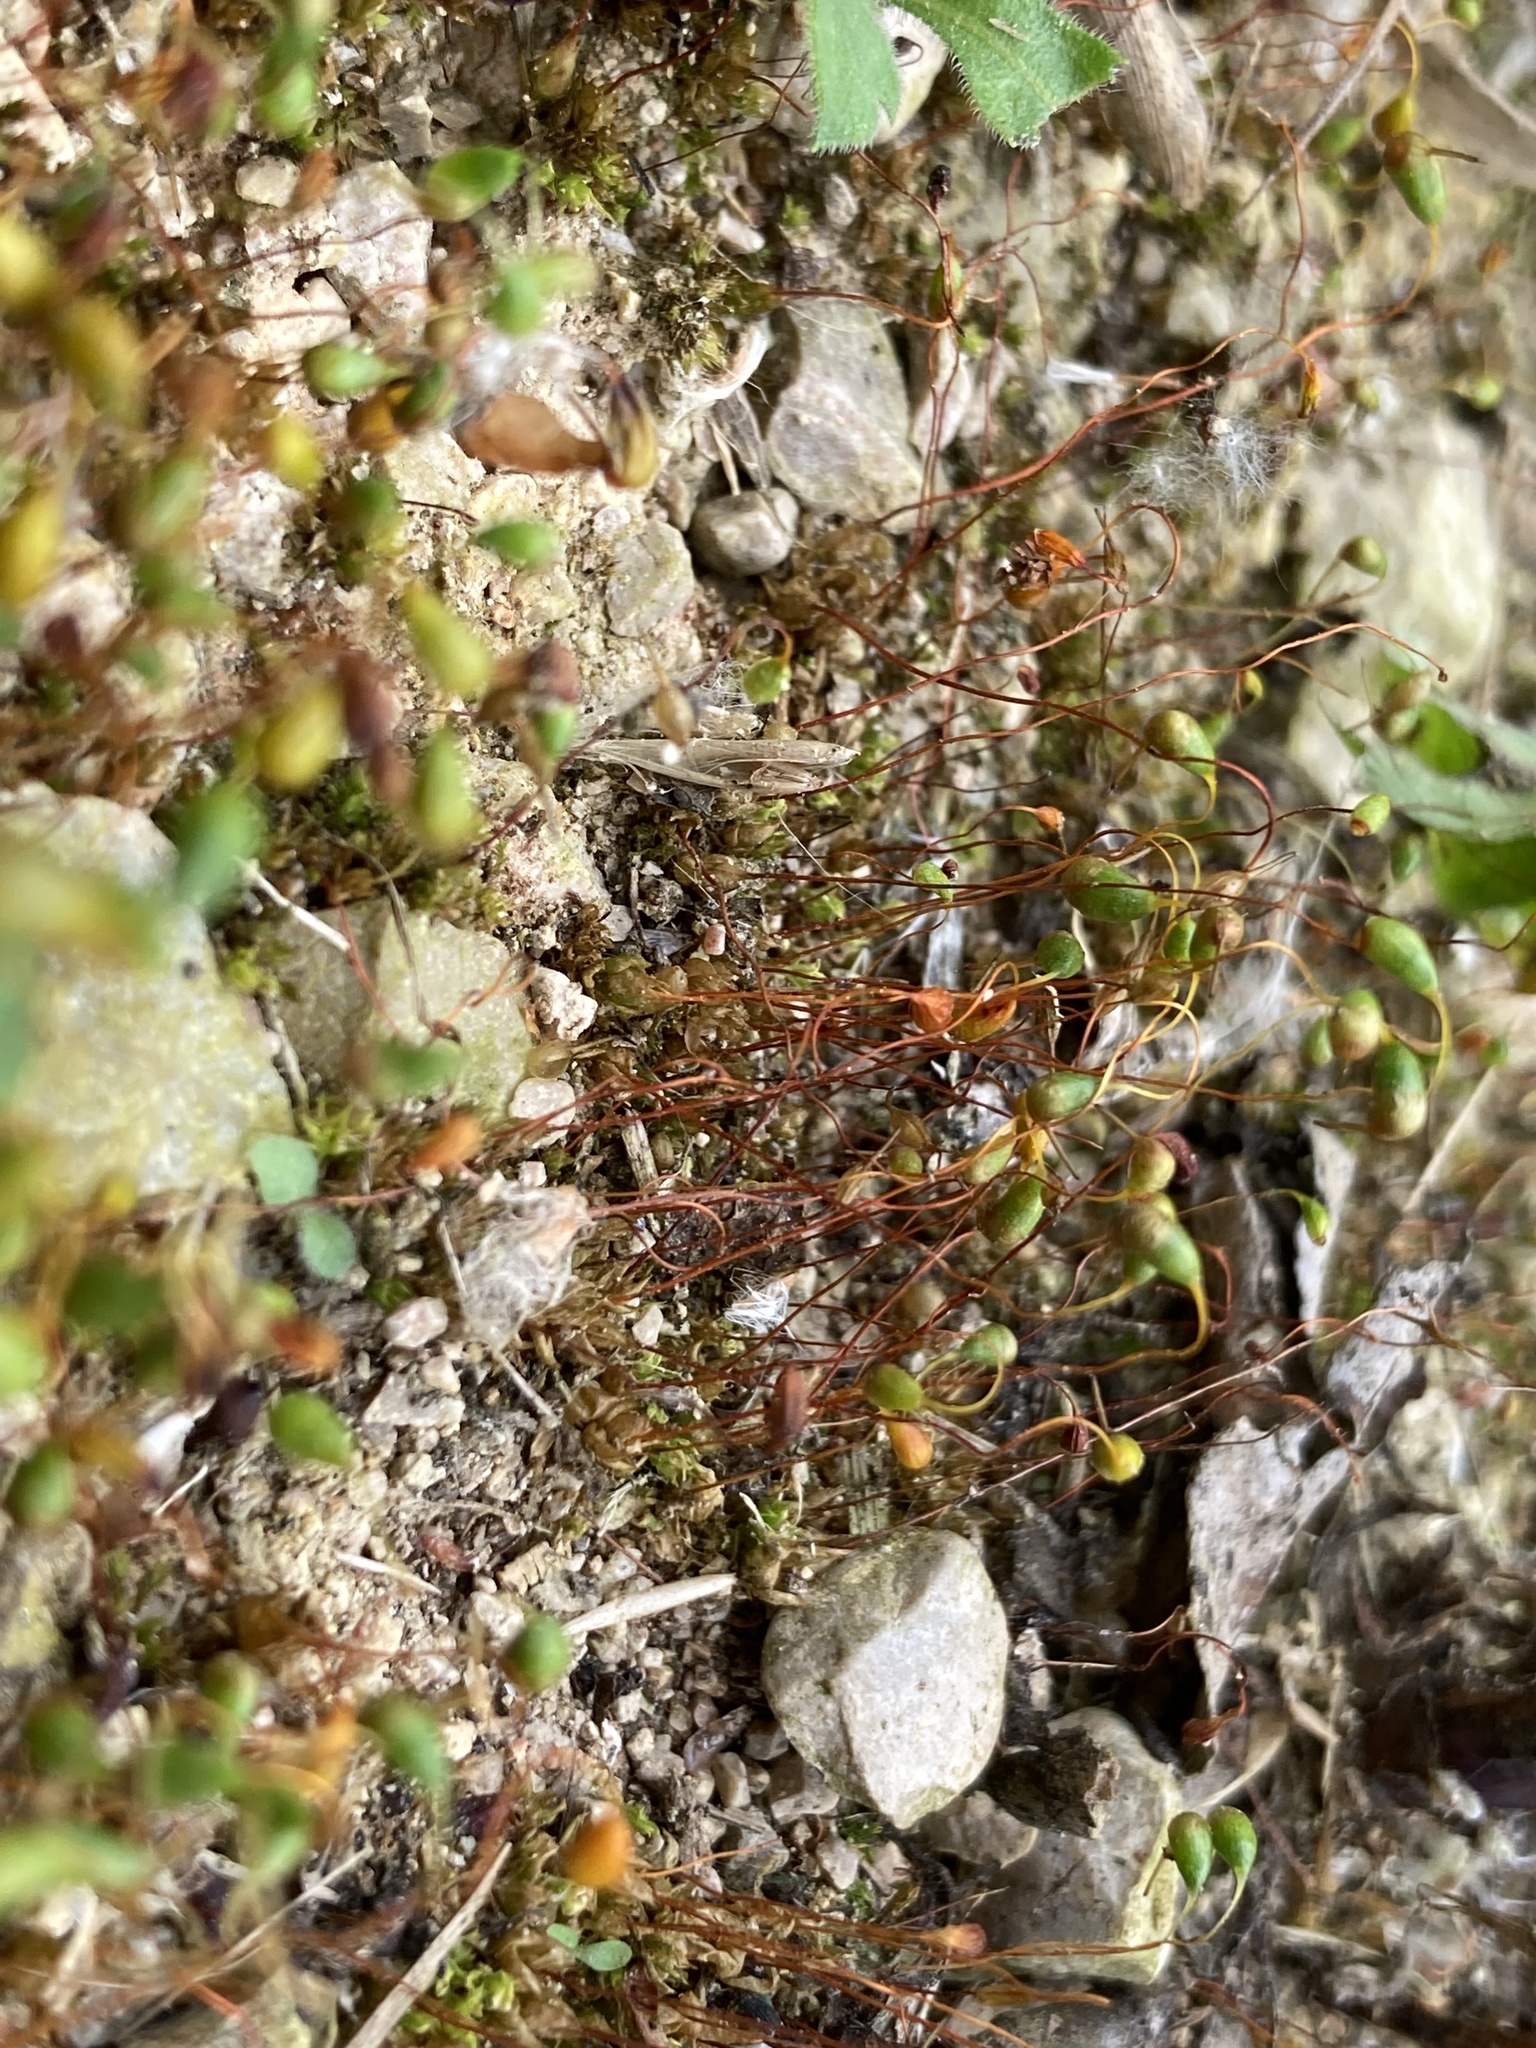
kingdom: Plantae
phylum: Bryophyta
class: Bryopsida
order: Funariales
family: Funariaceae
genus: Funaria
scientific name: Funaria hygrometrica
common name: Common cord moss
